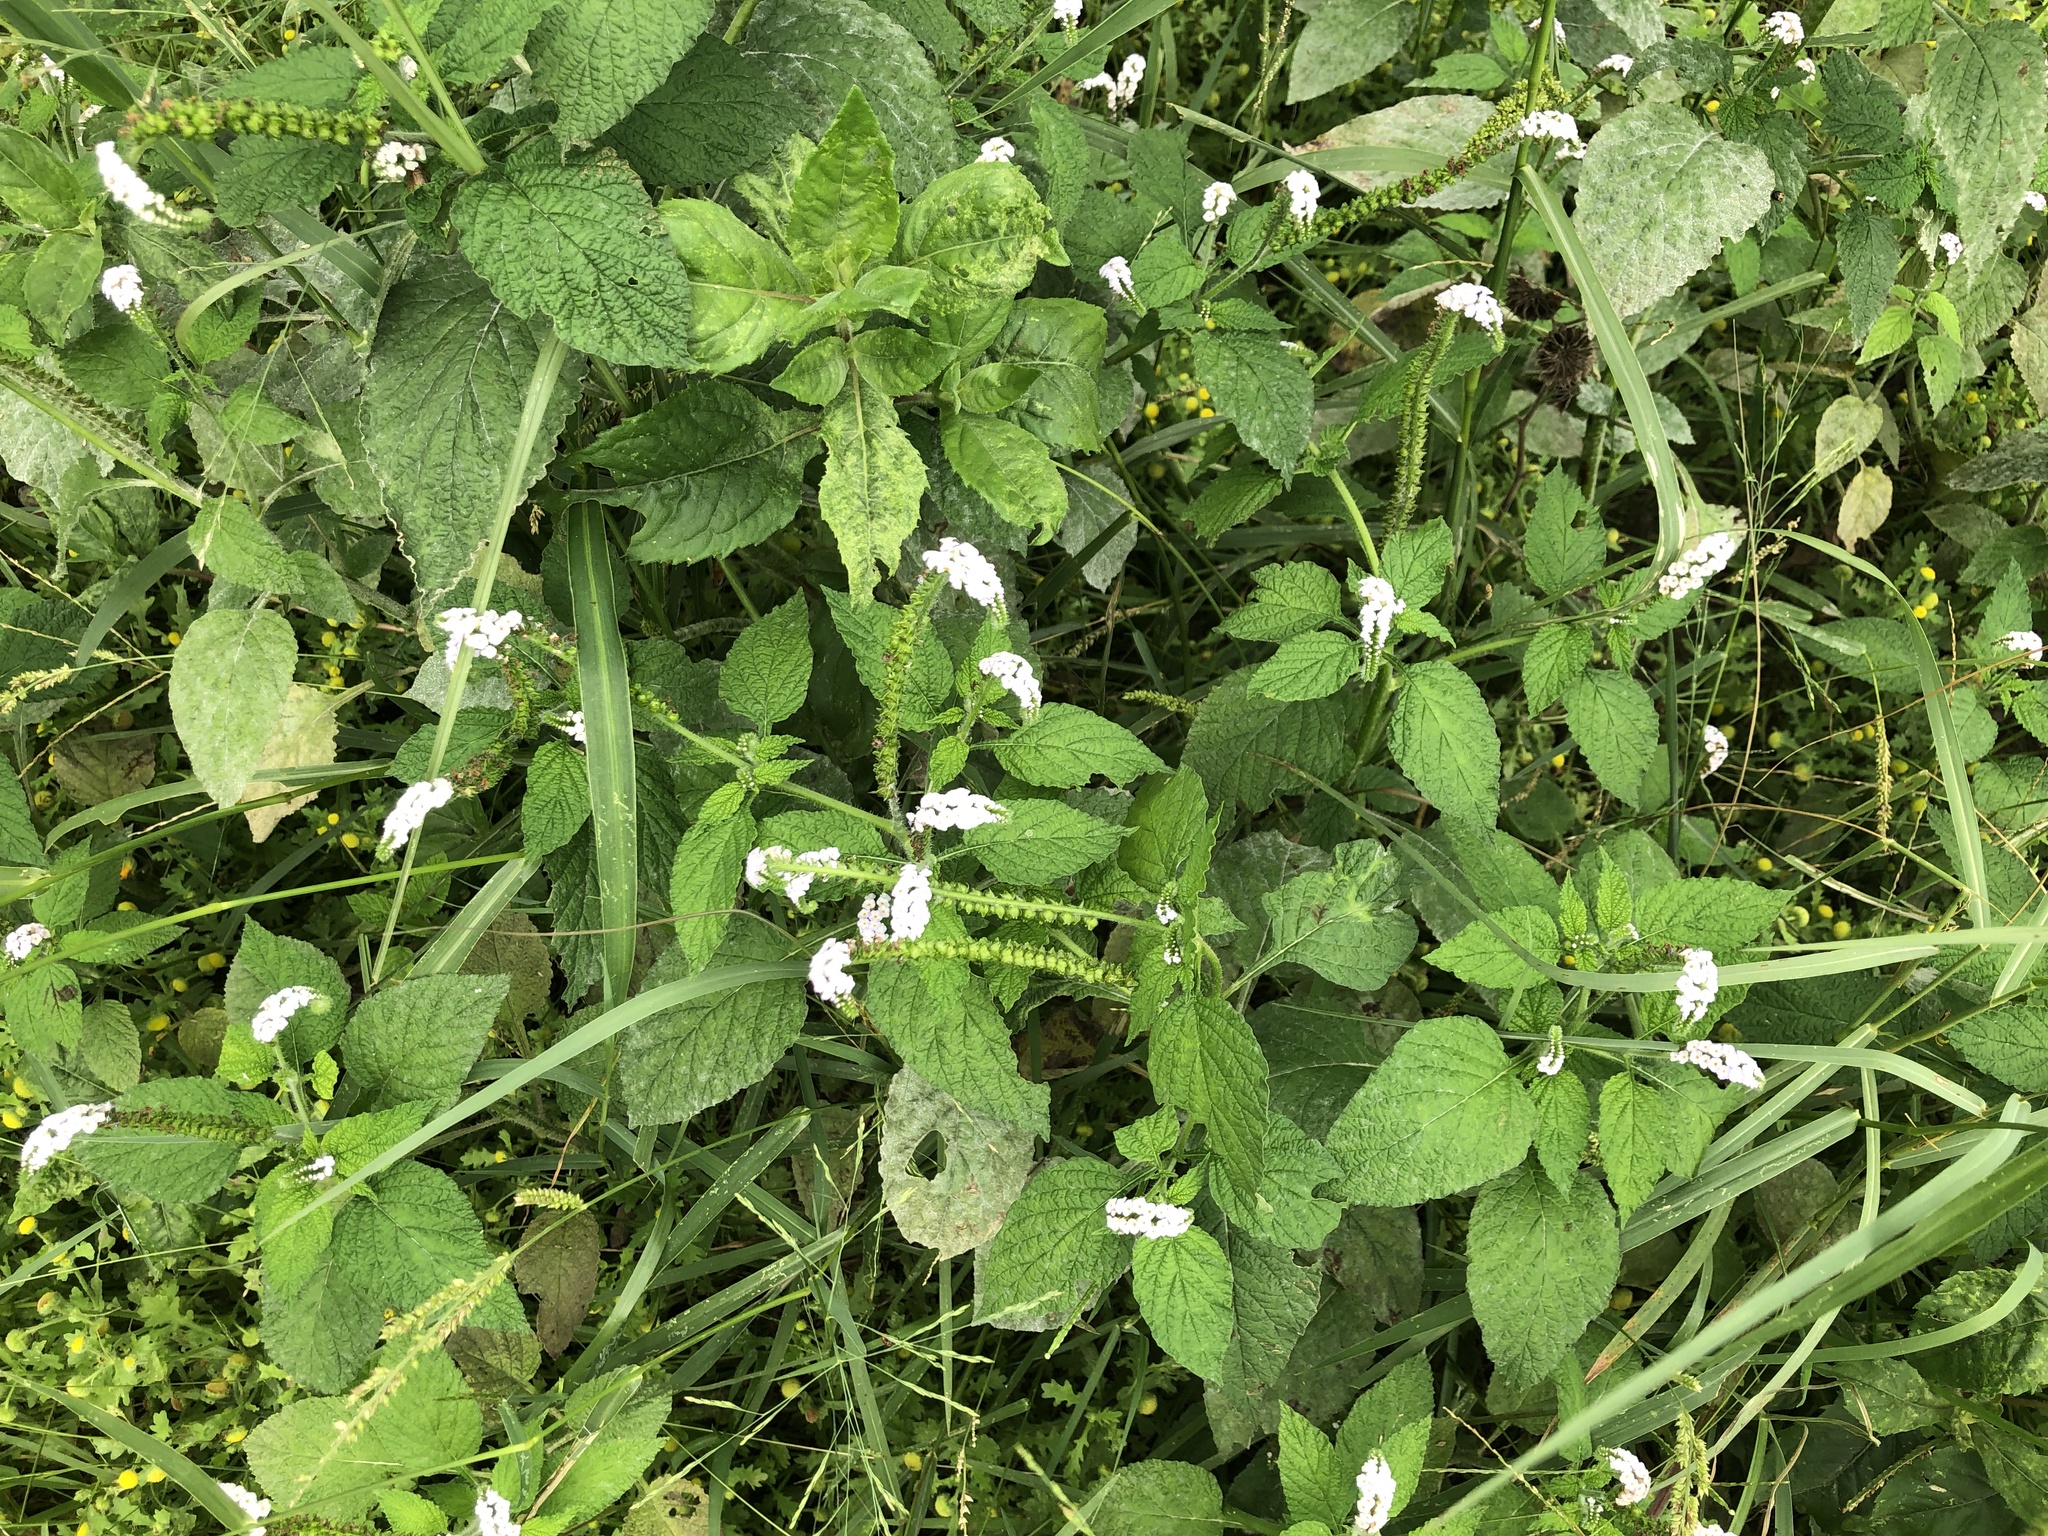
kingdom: Plantae
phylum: Tracheophyta
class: Magnoliopsida
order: Boraginales
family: Heliotropiaceae
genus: Heliotropium
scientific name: Heliotropium indicum
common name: Indian heliotrope
